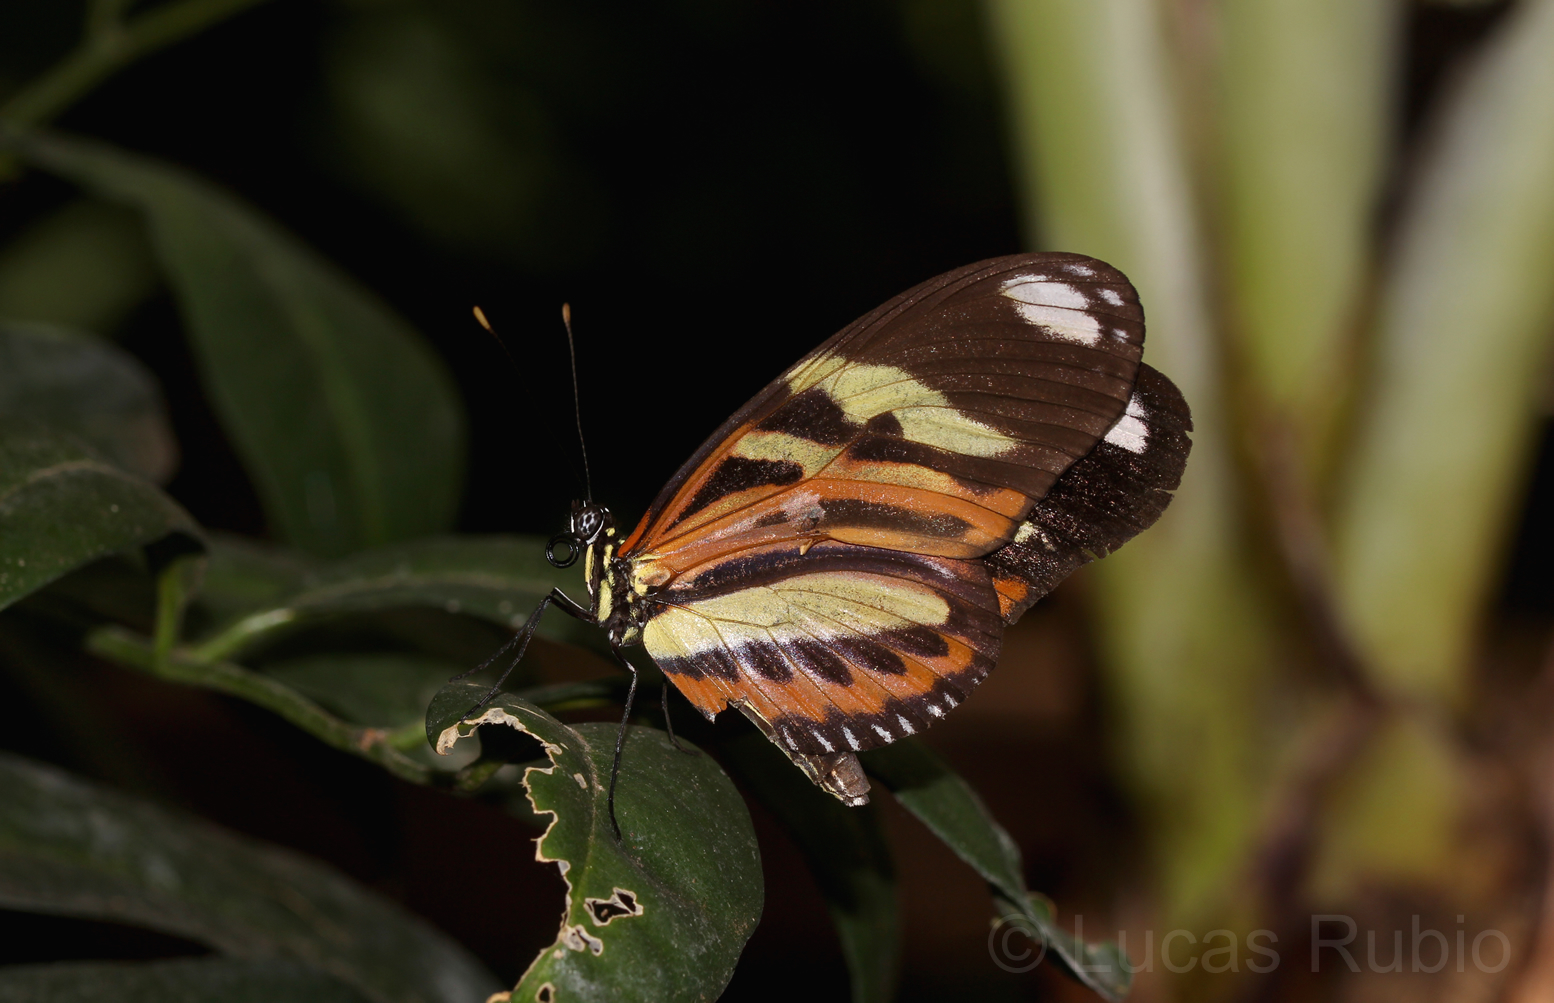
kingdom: Animalia
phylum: Arthropoda
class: Insecta
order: Lepidoptera
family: Nymphalidae
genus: Heliconius
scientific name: Heliconius ethilla
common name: Ethilia longwing
